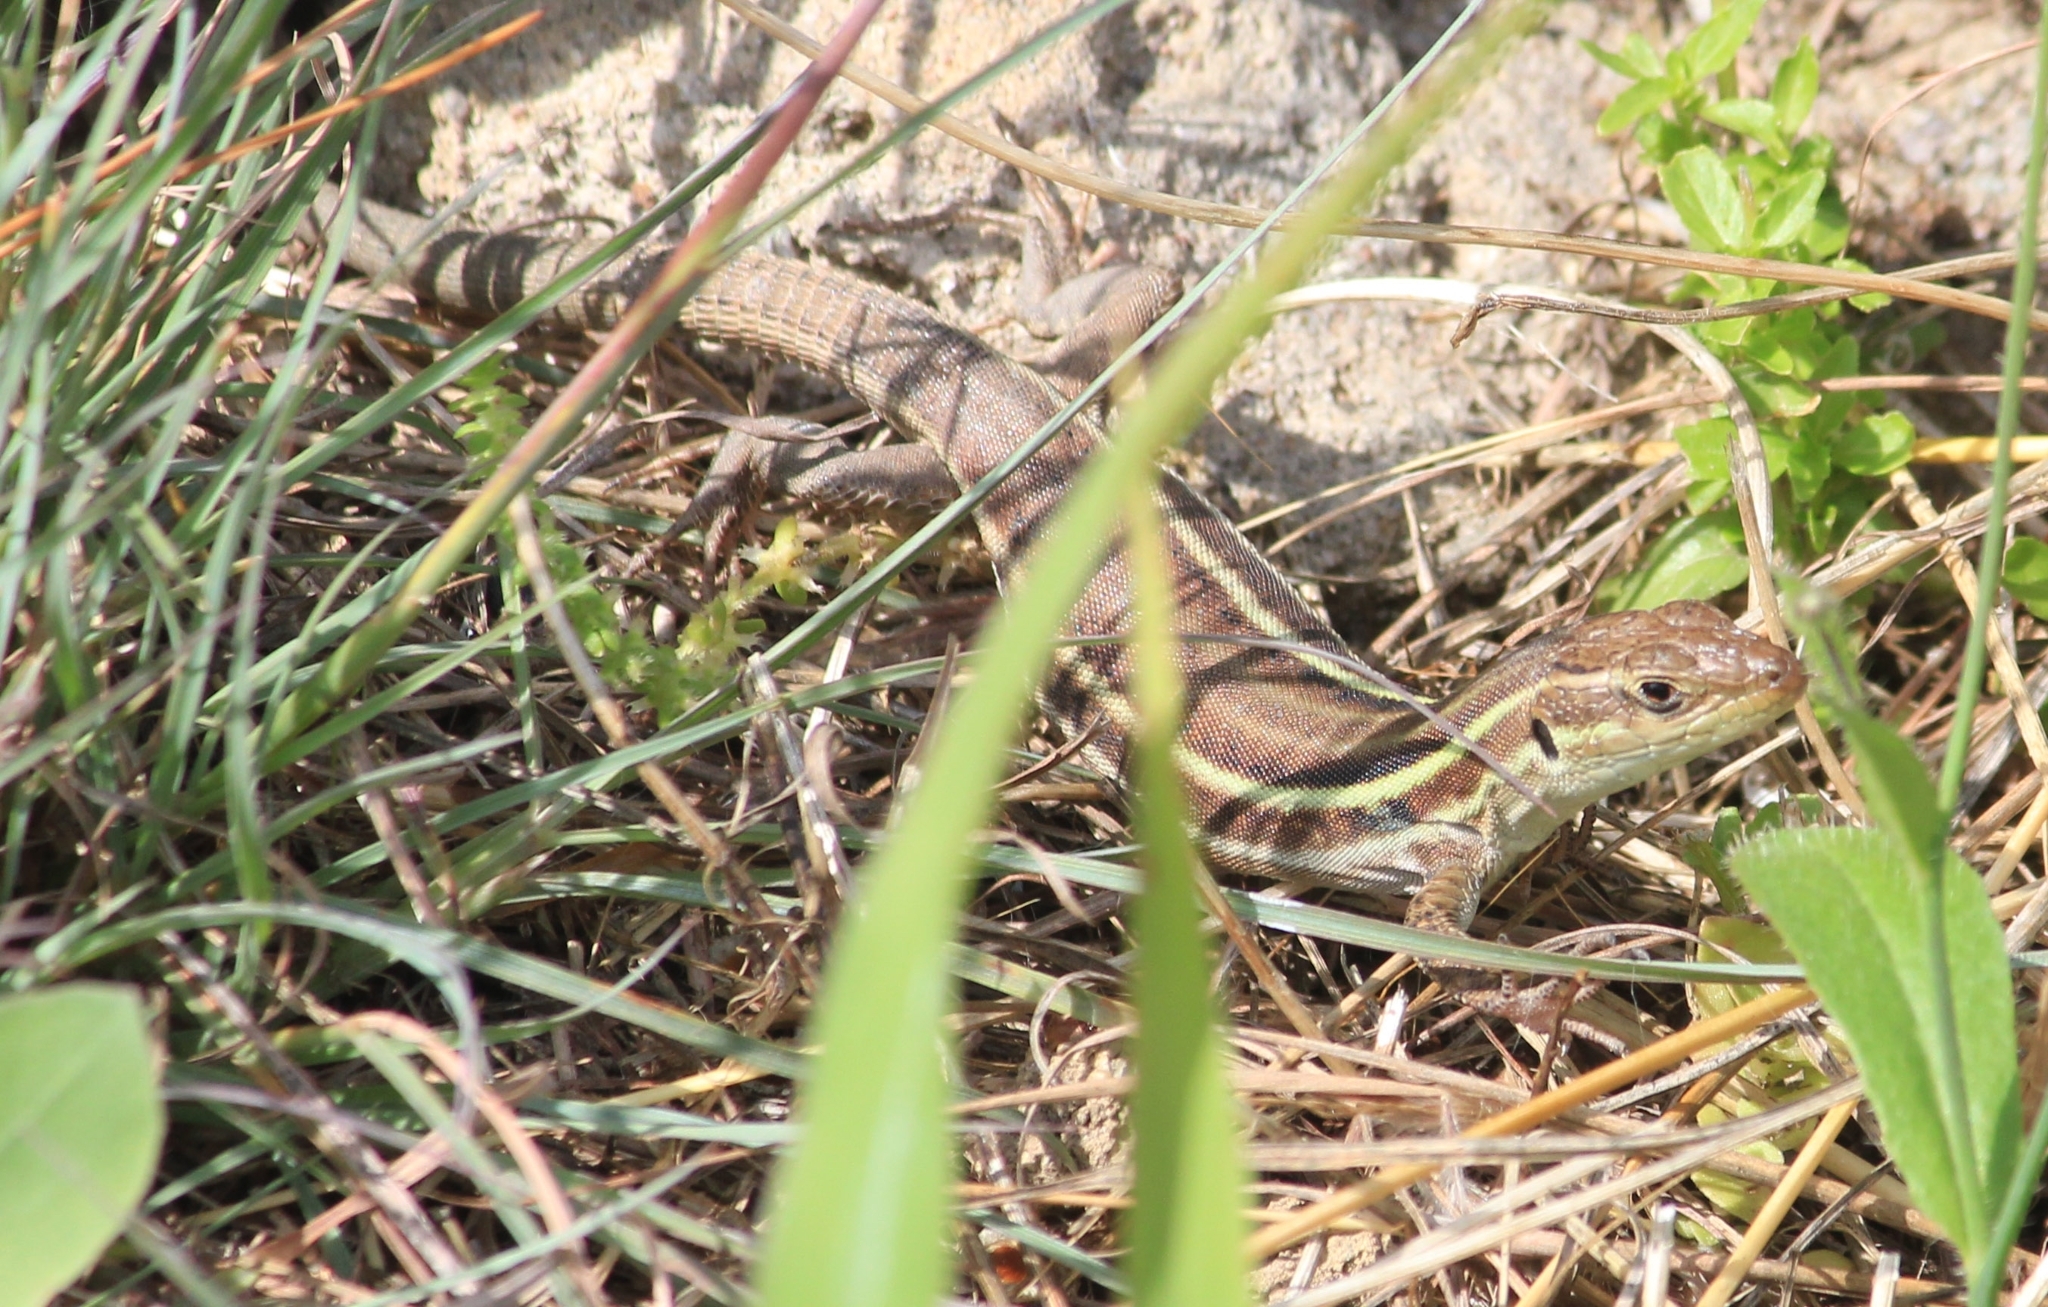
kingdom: Animalia
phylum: Chordata
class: Squamata
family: Lacertidae
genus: Podarcis
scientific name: Podarcis peloponnesiacus
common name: Peloponnese wall lizard
